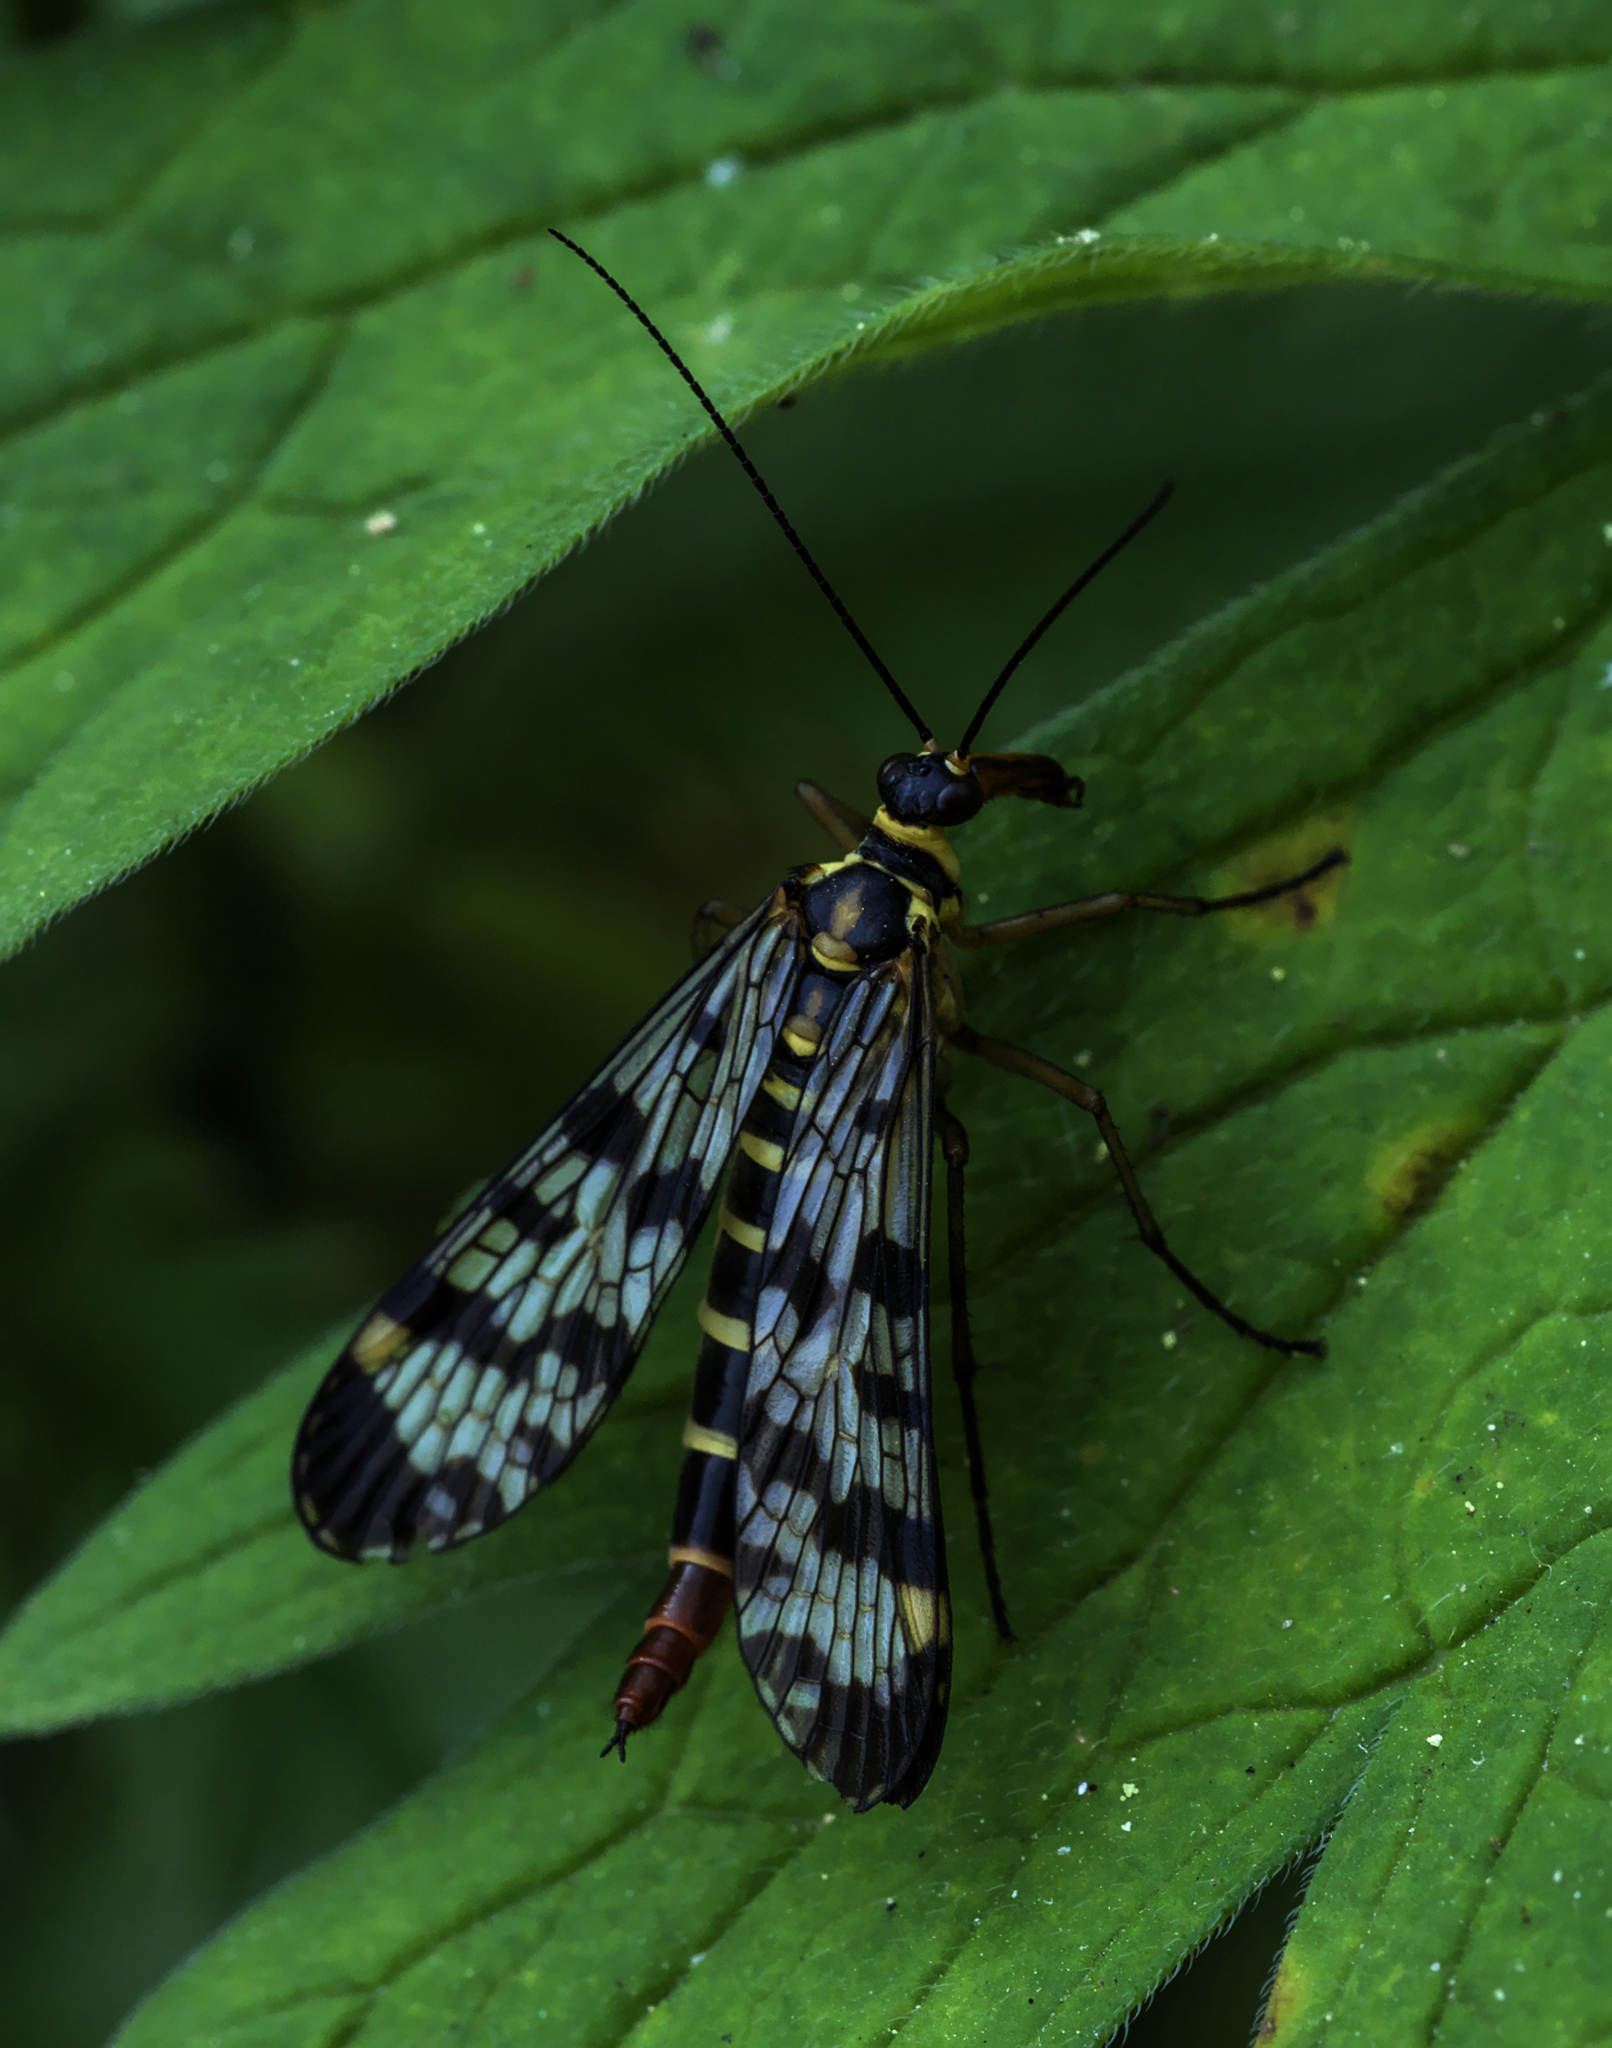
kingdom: Animalia
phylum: Arthropoda
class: Insecta
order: Mecoptera
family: Panorpidae
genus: Panorpa
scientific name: Panorpa communis
